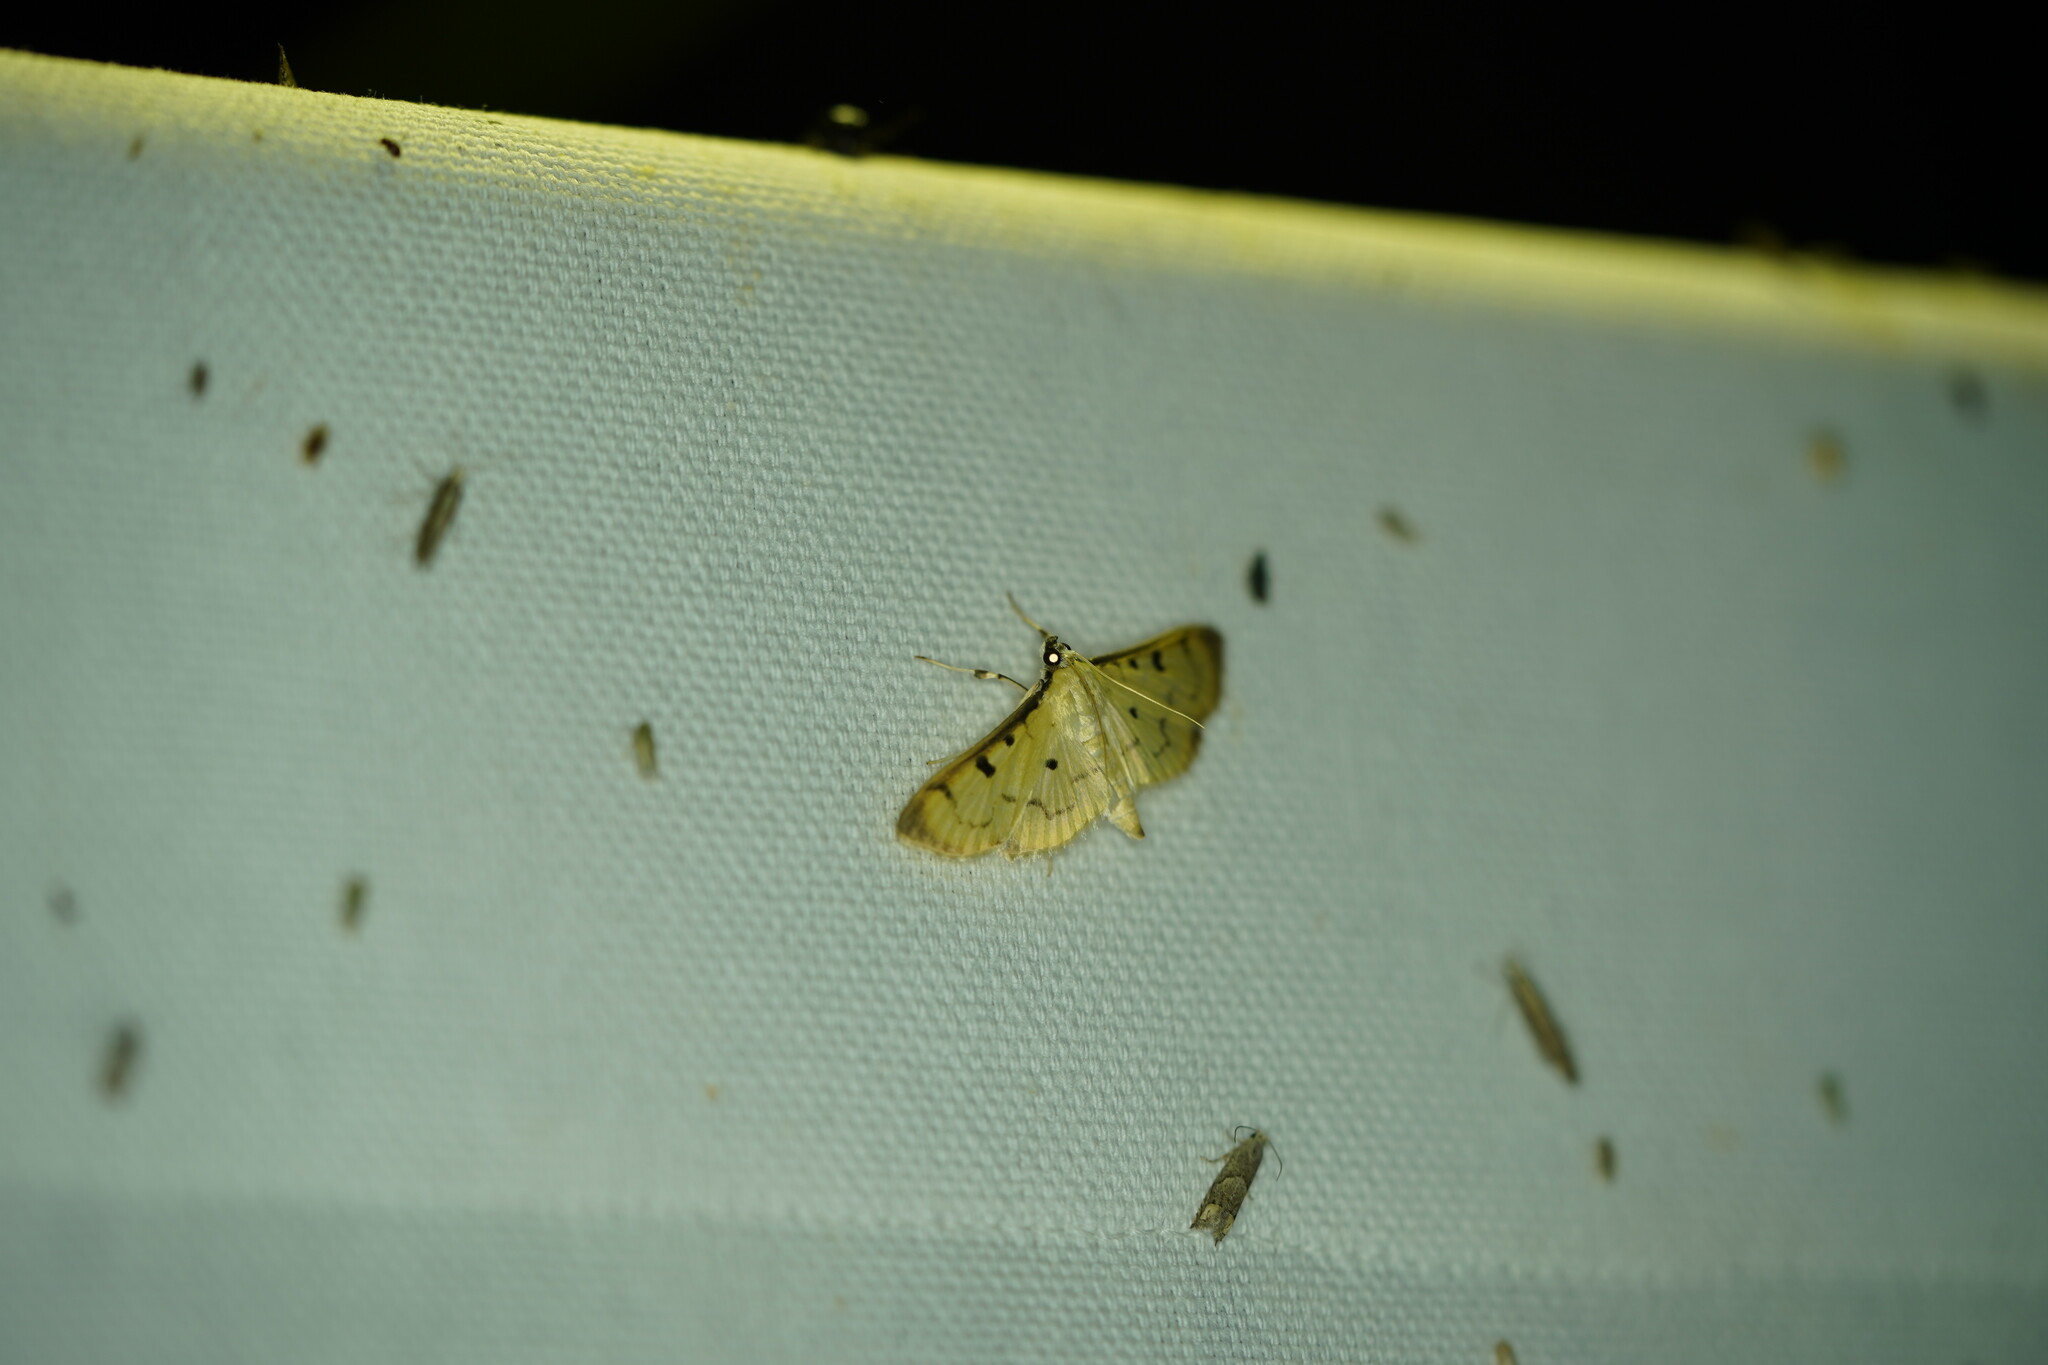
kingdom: Animalia
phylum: Arthropoda
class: Insecta
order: Lepidoptera
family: Crambidae
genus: Lygropia
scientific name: Lygropia tripunctata
